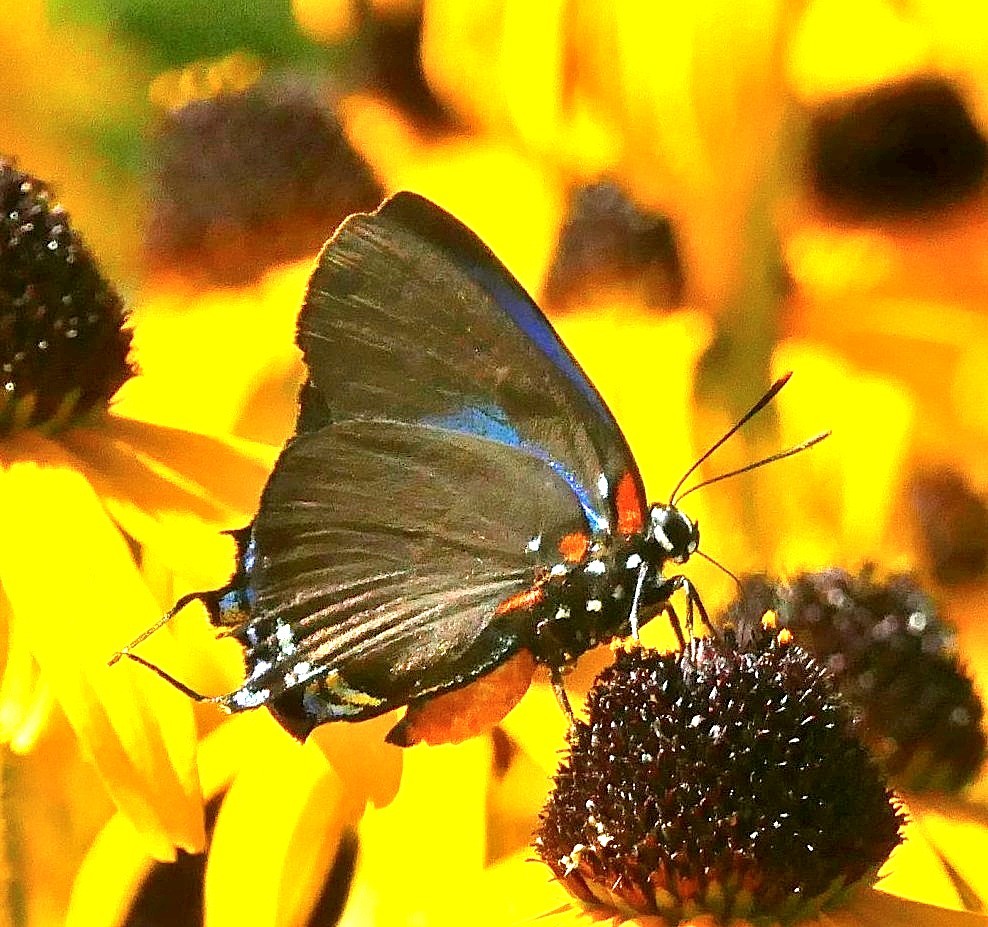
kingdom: Animalia
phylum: Arthropoda
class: Insecta
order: Lepidoptera
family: Lycaenidae
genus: Atlides
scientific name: Atlides halesus
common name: Great purple hairstreak
